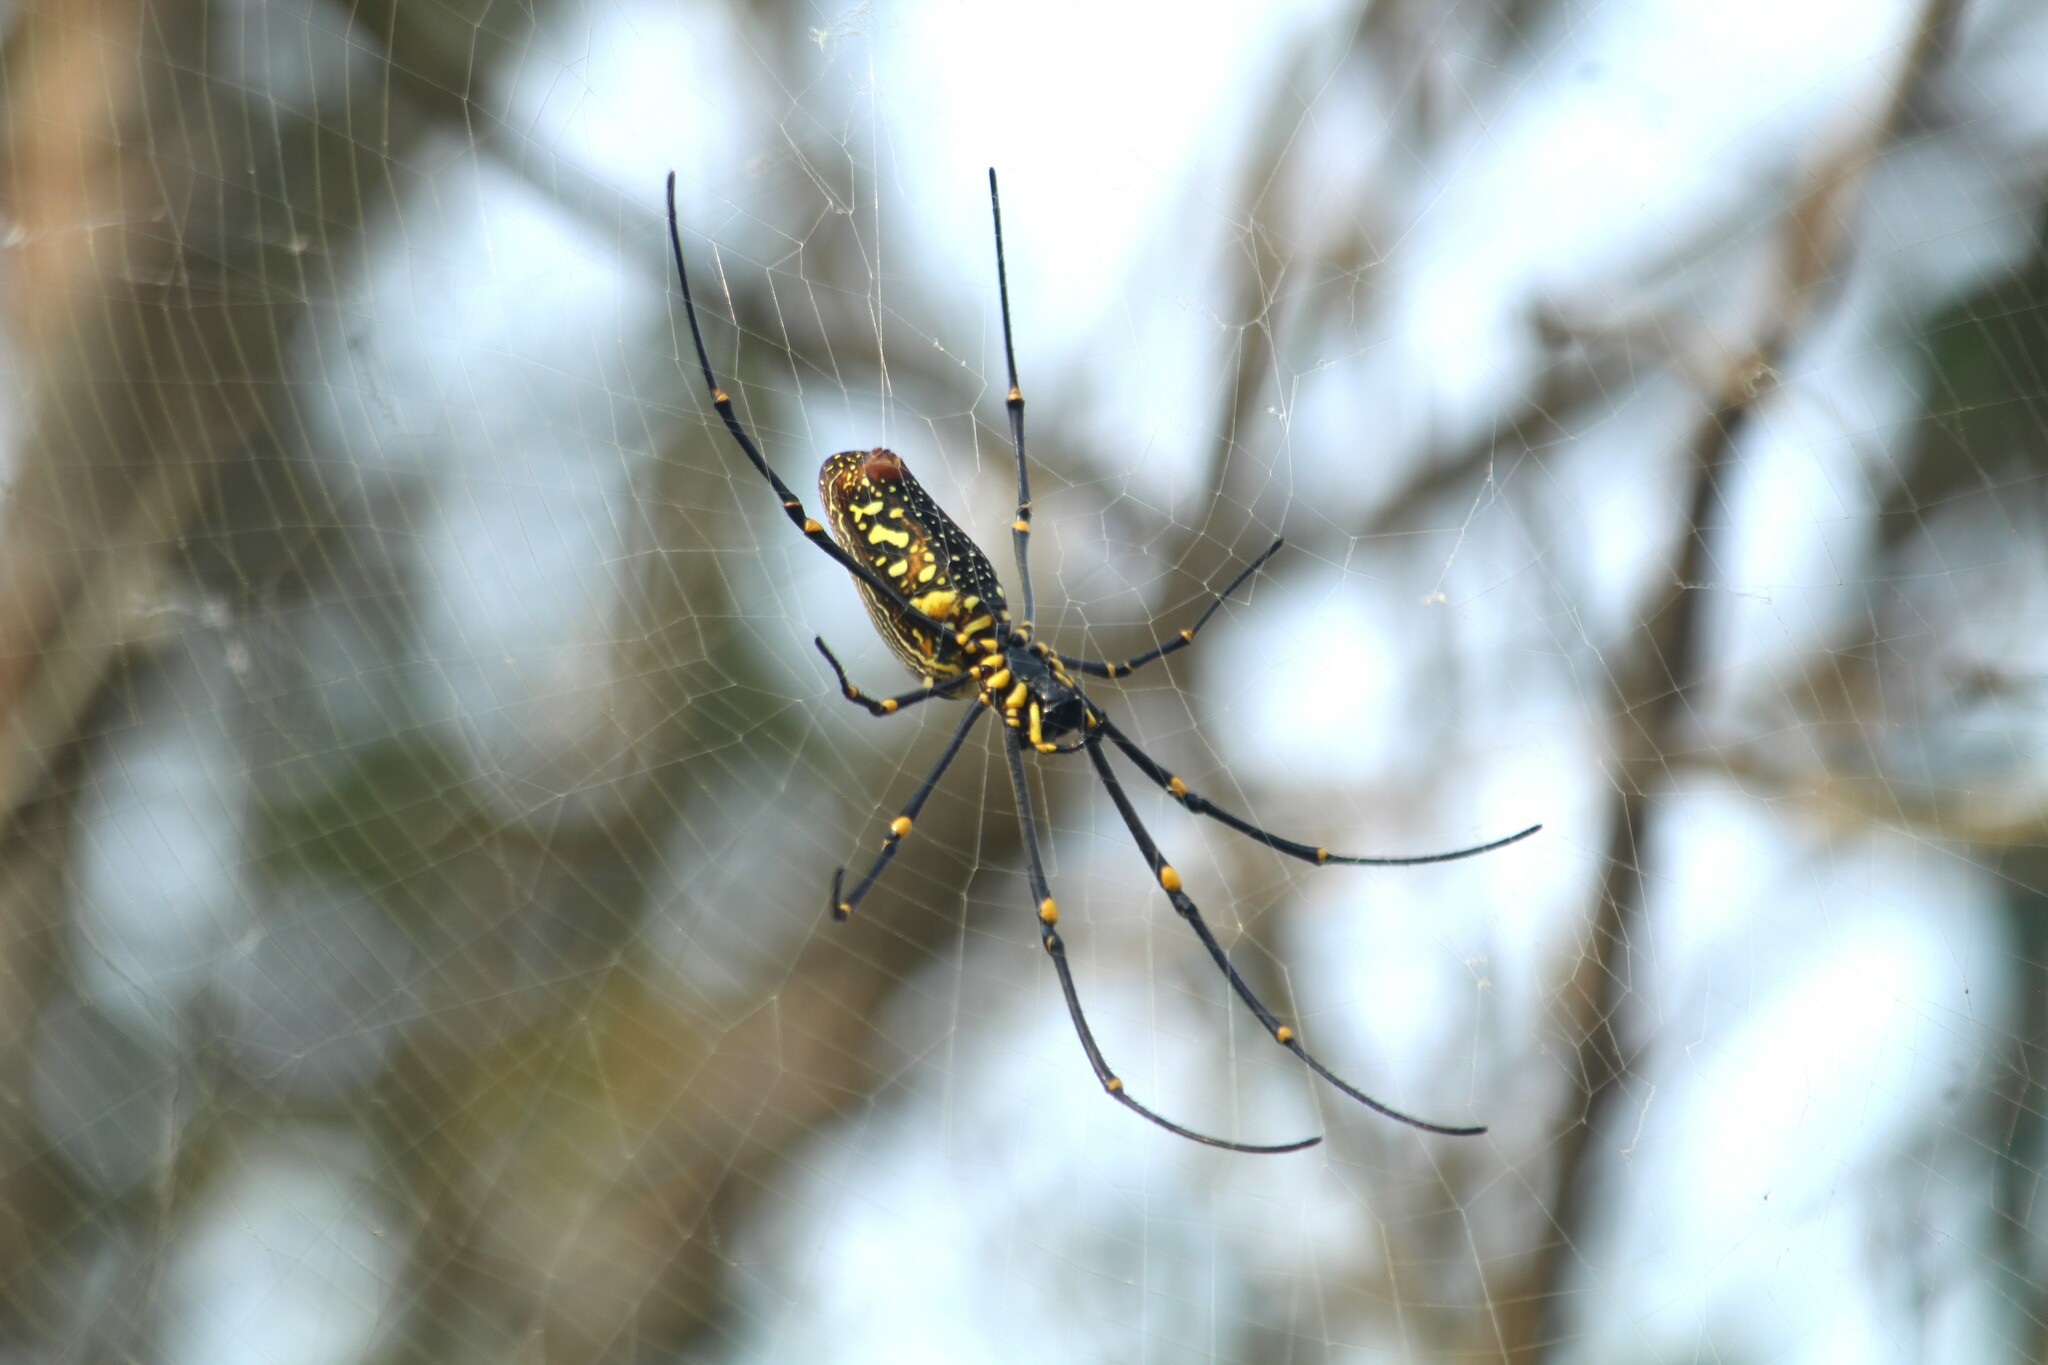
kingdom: Animalia
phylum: Arthropoda
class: Arachnida
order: Araneae
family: Araneidae
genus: Nephila
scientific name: Nephila pilipes
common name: Giant golden orb weaver
